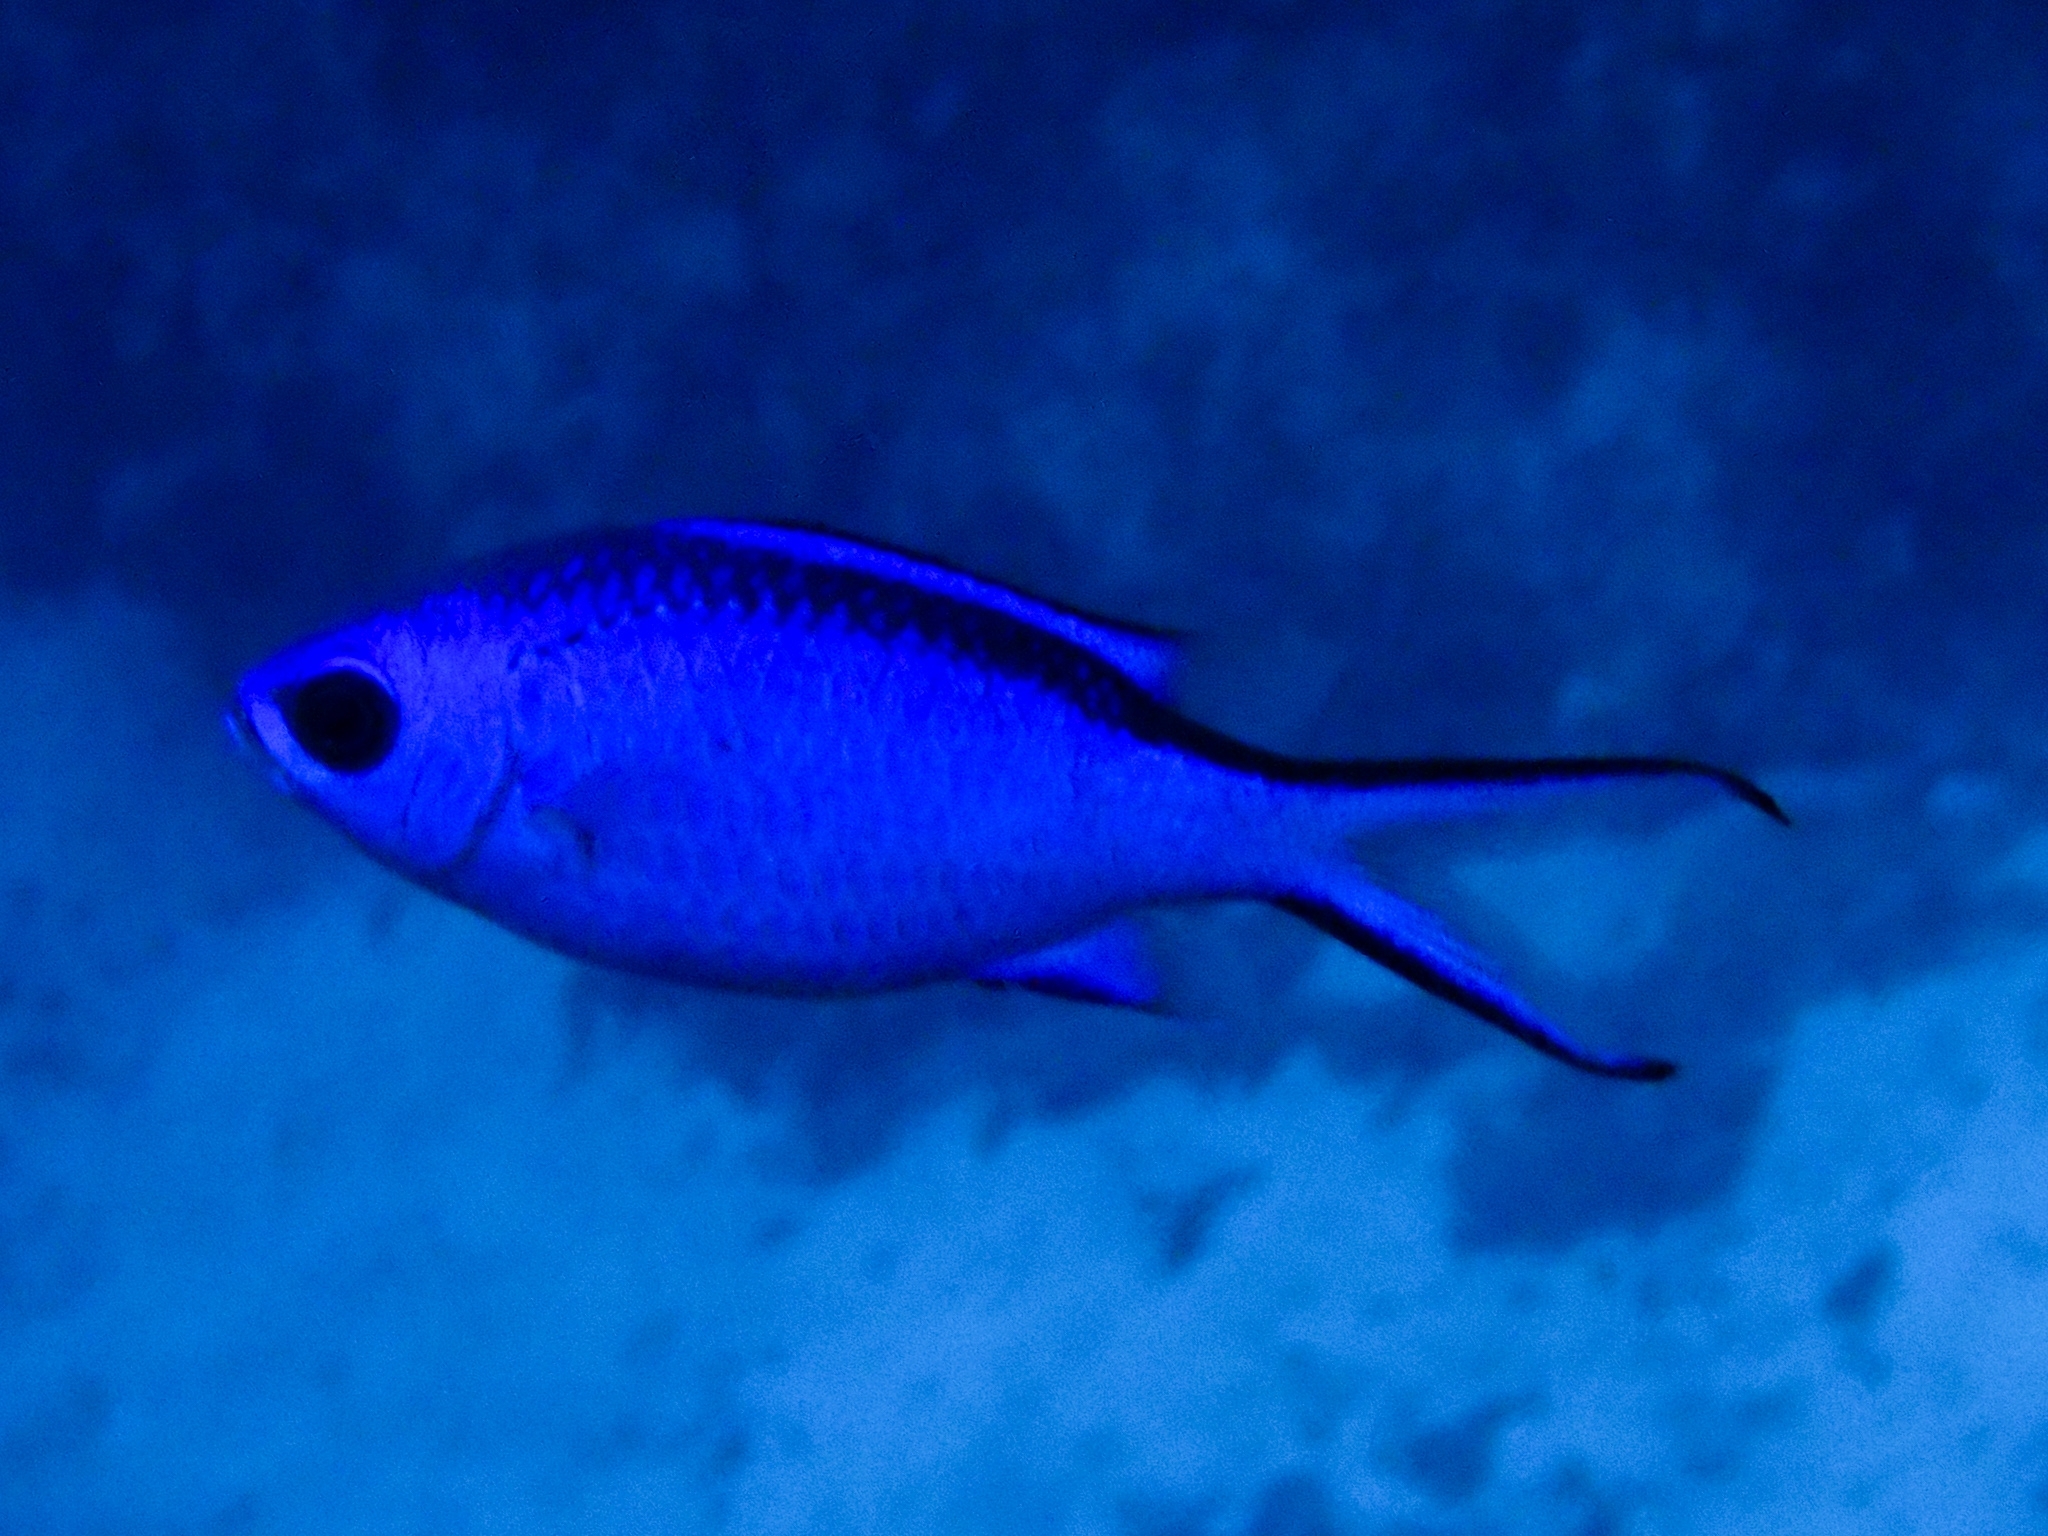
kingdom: Animalia
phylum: Chordata
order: Perciformes
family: Pomacentridae
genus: Chromis
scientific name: Chromis cyanea
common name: Blue chromis
